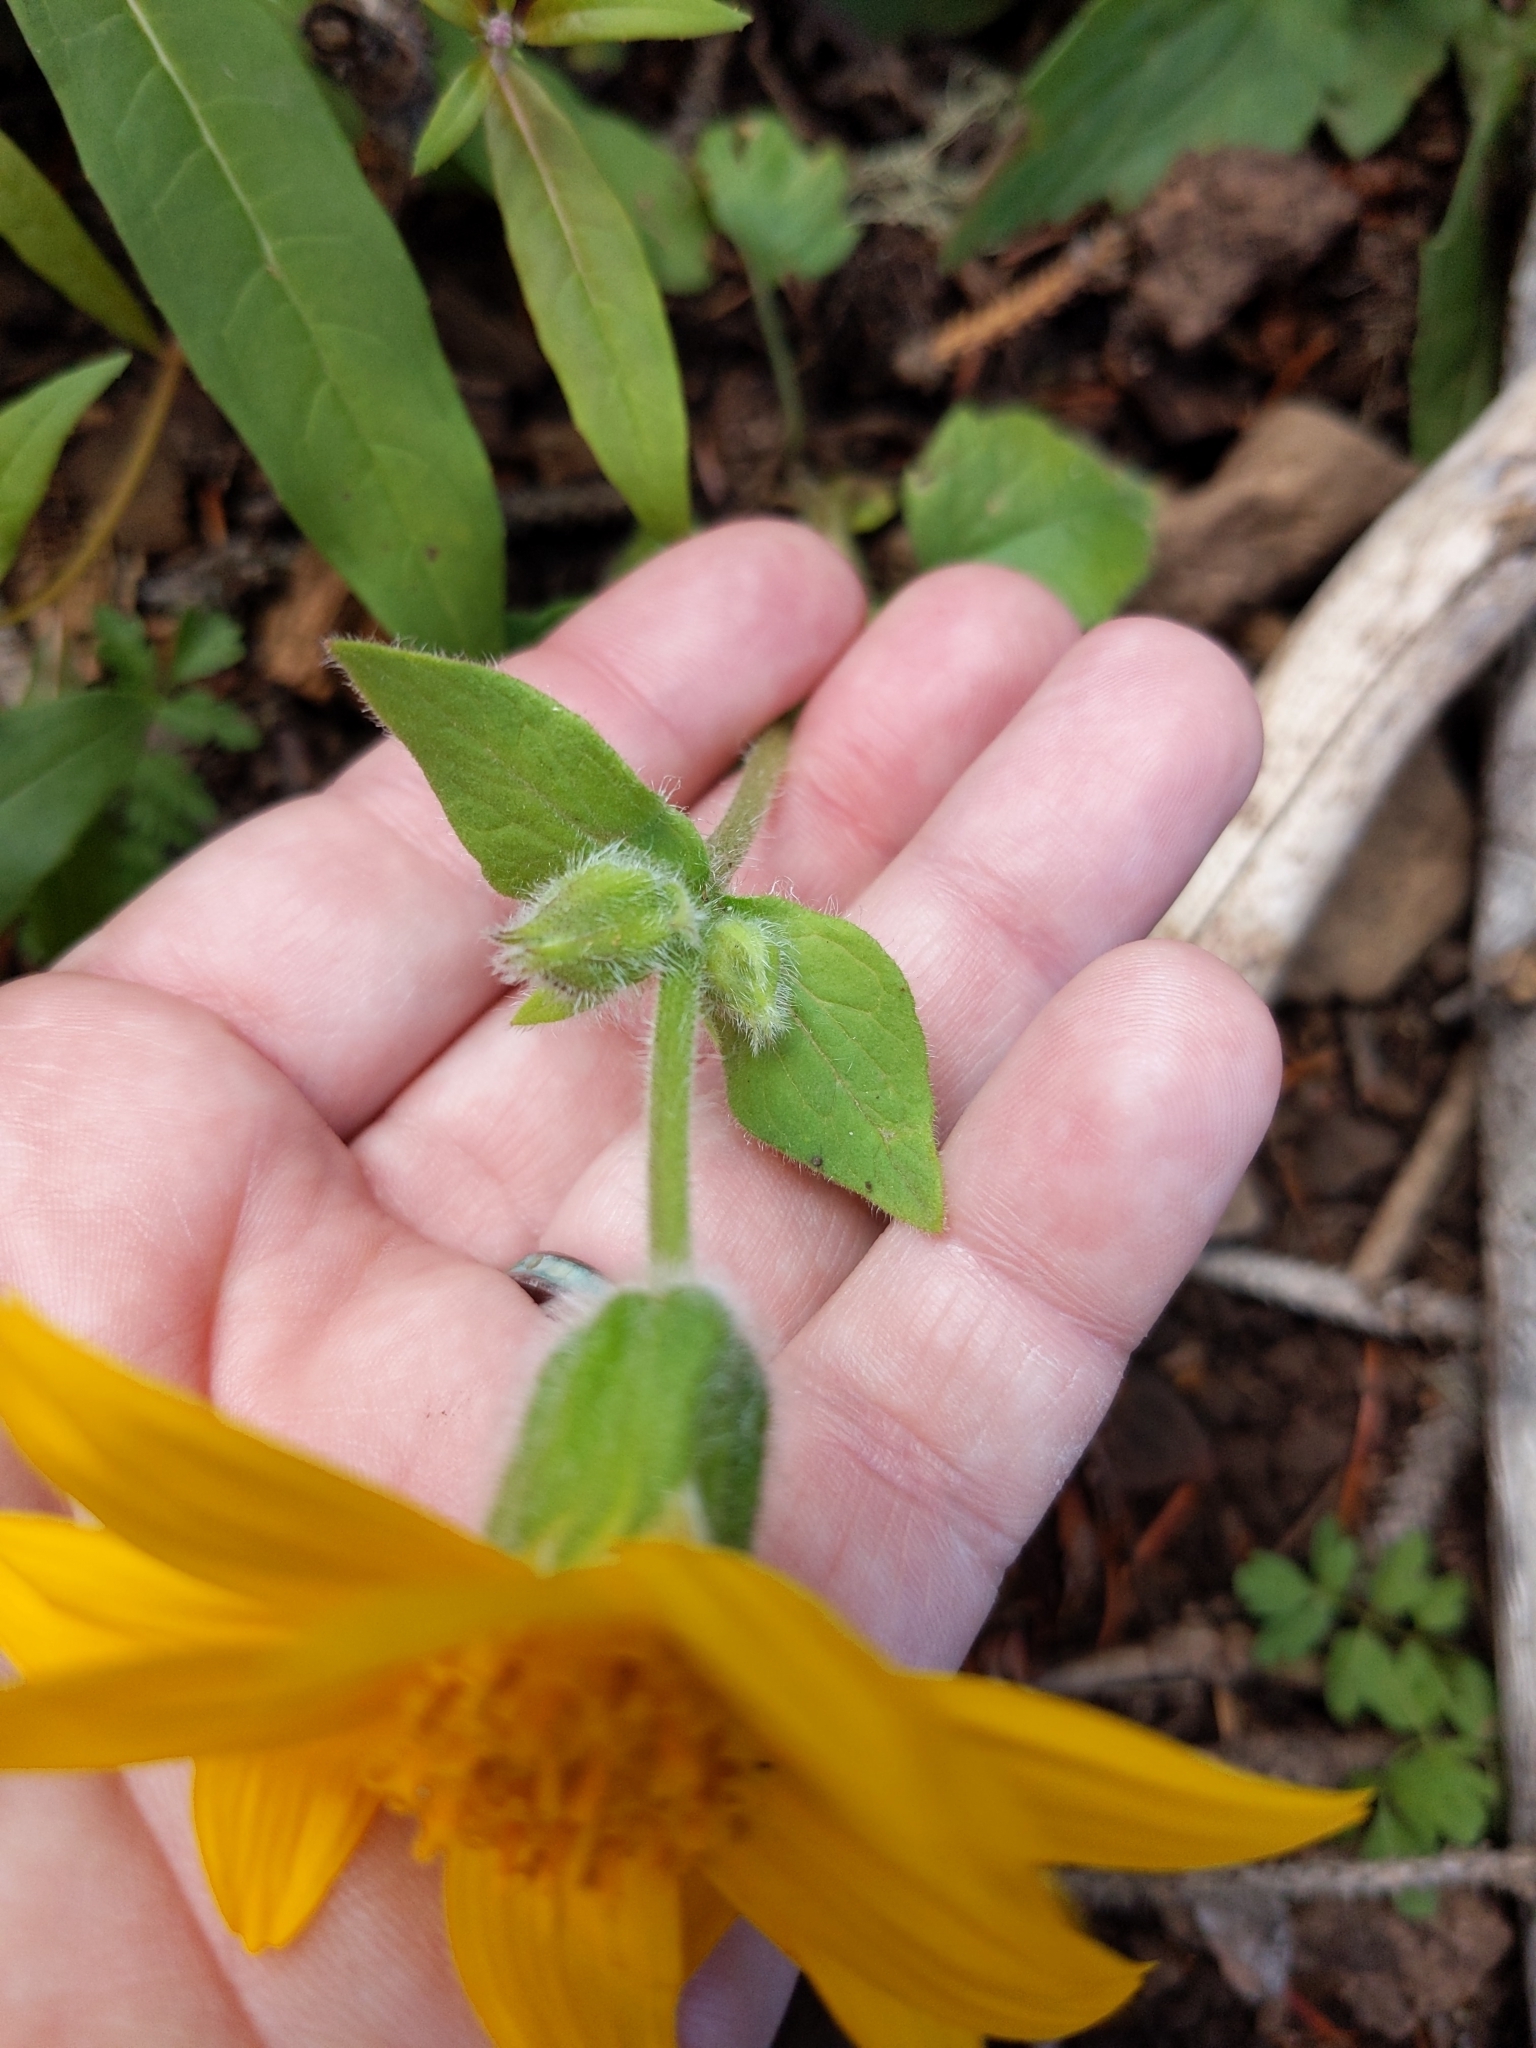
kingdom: Plantae
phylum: Tracheophyta
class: Magnoliopsida
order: Asterales
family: Asteraceae
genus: Arnica
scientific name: Arnica cordifolia
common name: Heart-leaf arnica
